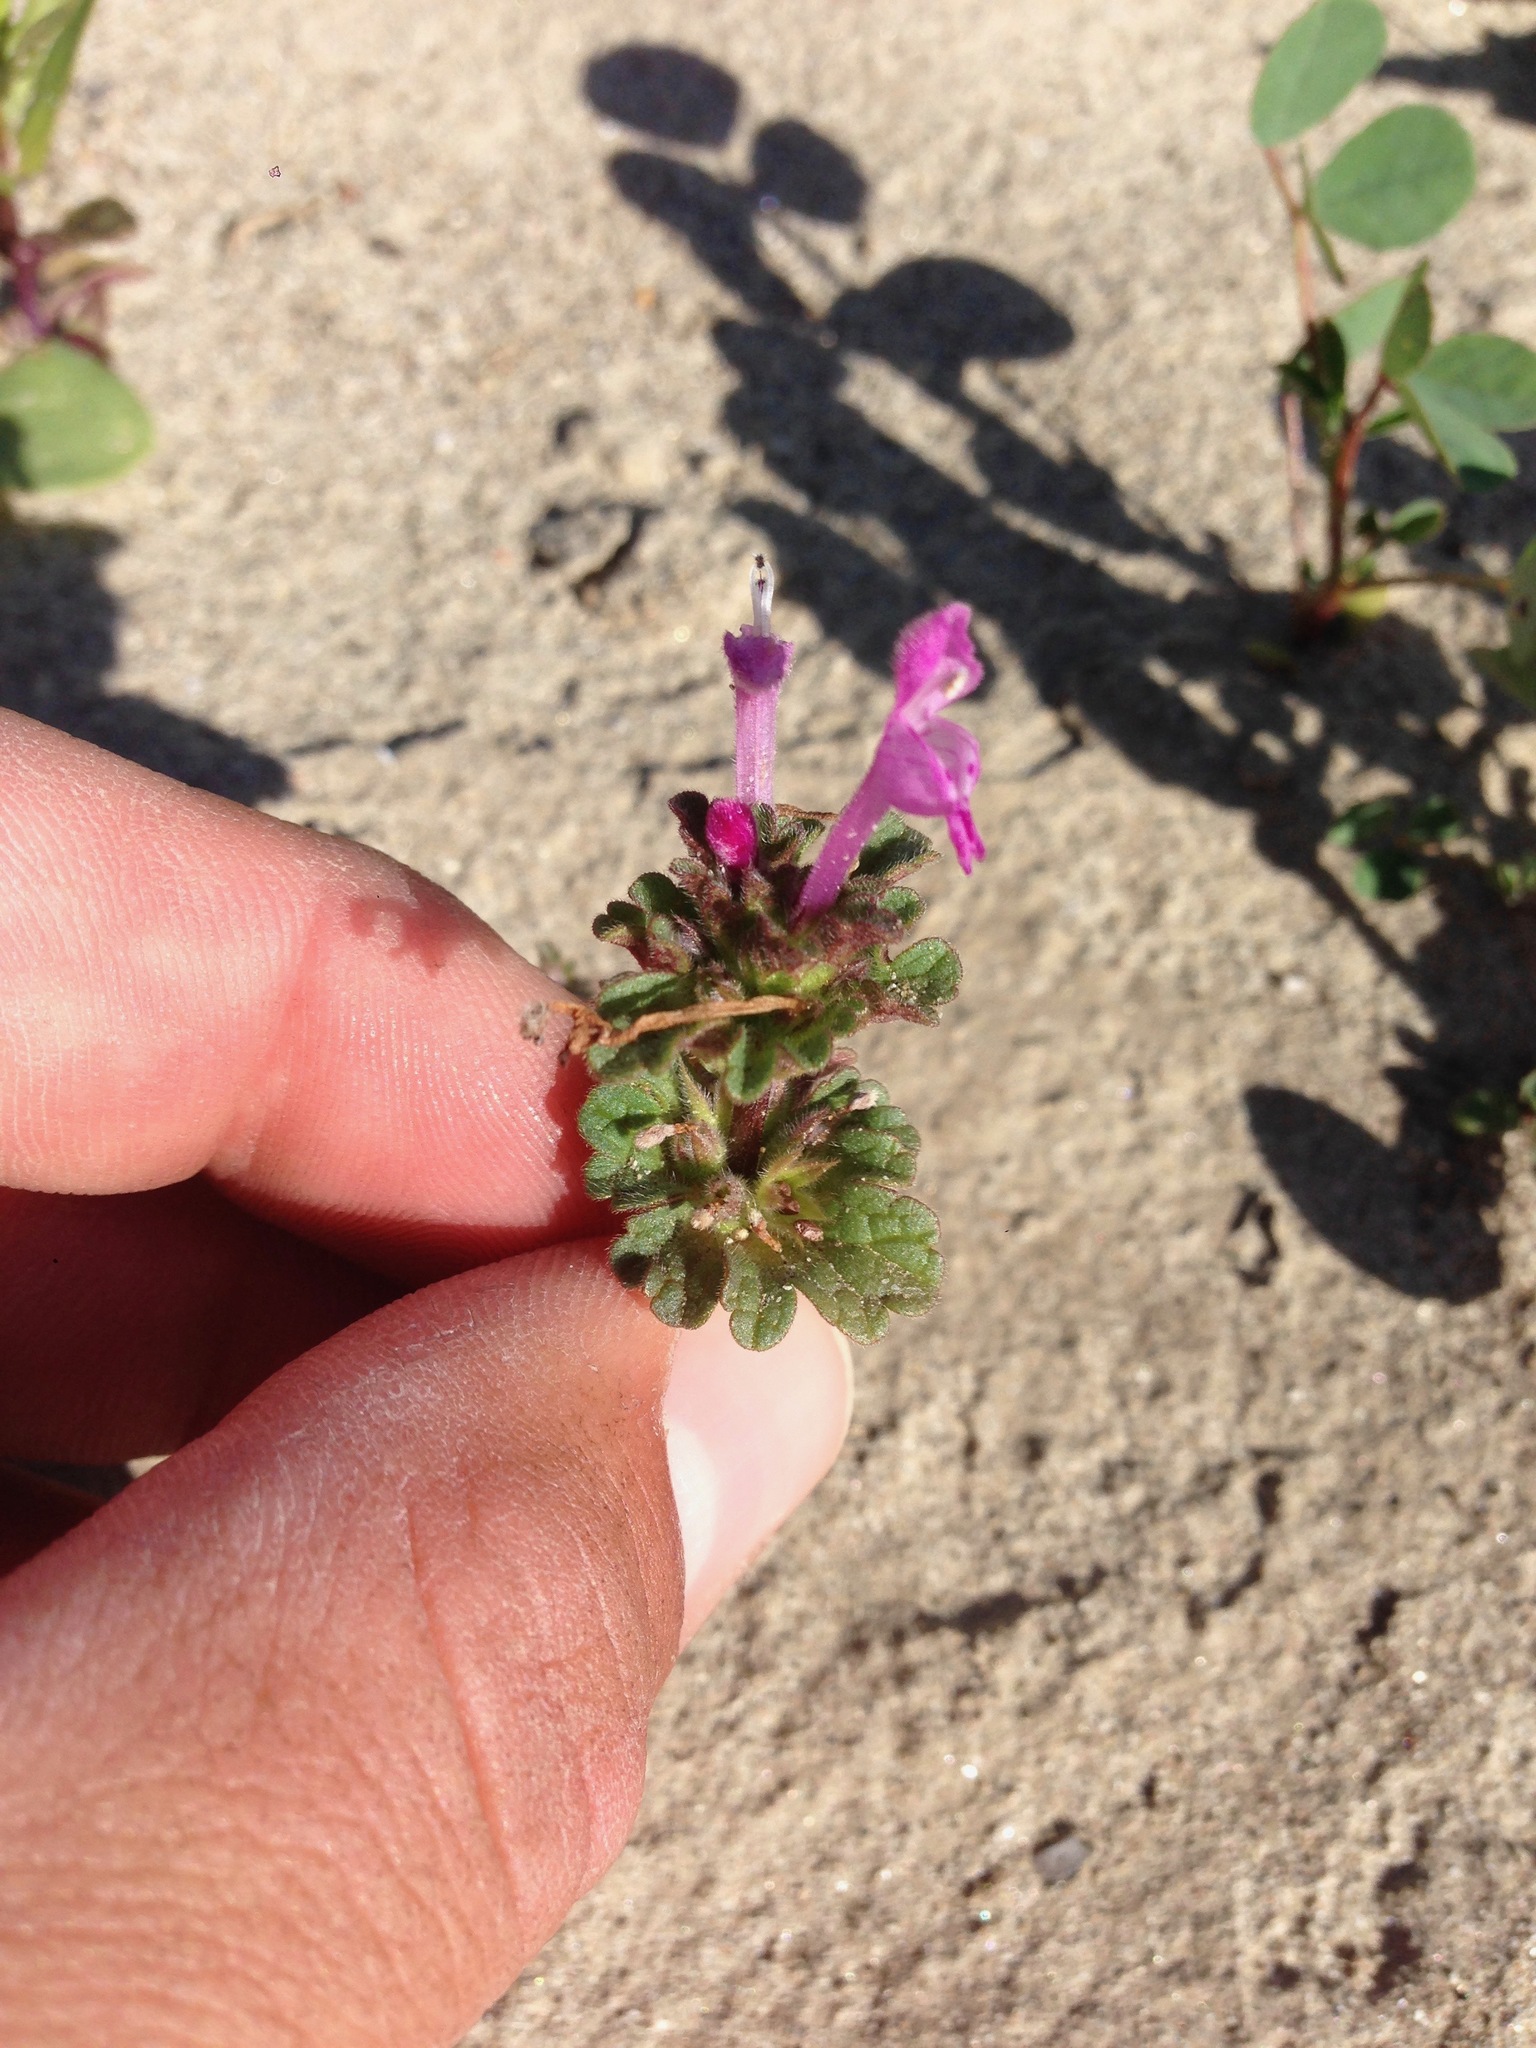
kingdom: Plantae
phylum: Tracheophyta
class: Magnoliopsida
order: Lamiales
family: Lamiaceae
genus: Lamium
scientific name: Lamium amplexicaule
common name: Henbit dead-nettle
